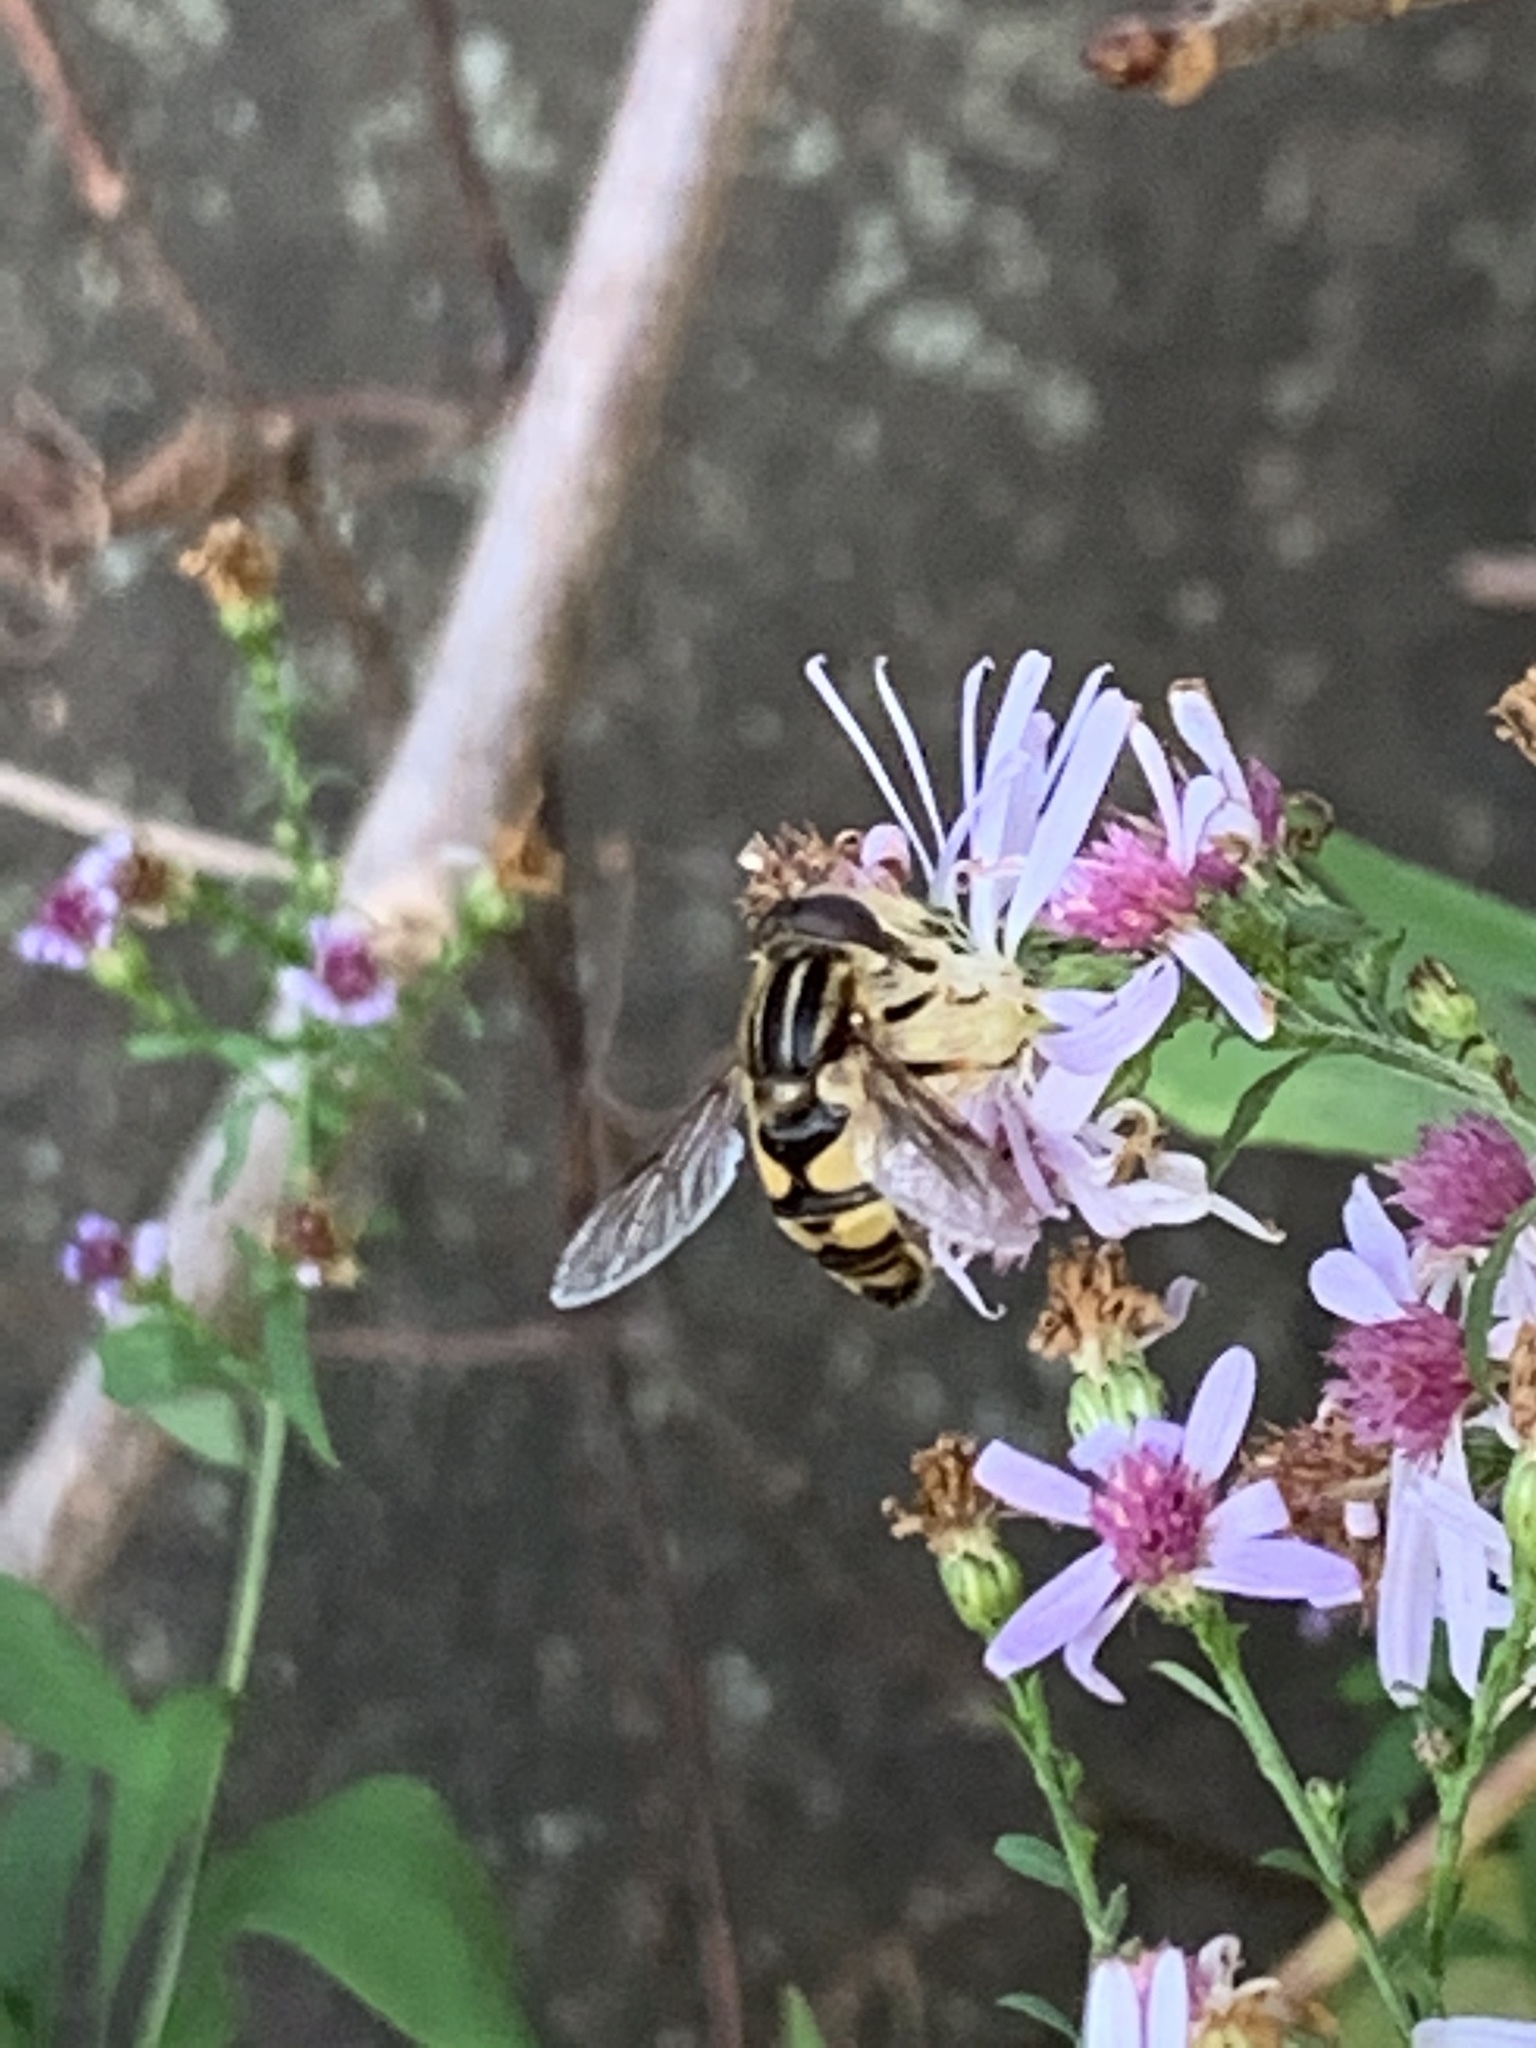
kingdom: Animalia
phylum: Arthropoda
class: Insecta
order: Diptera
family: Syrphidae
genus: Helophilus
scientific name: Helophilus fasciatus
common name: Narrow-headed marsh fly
